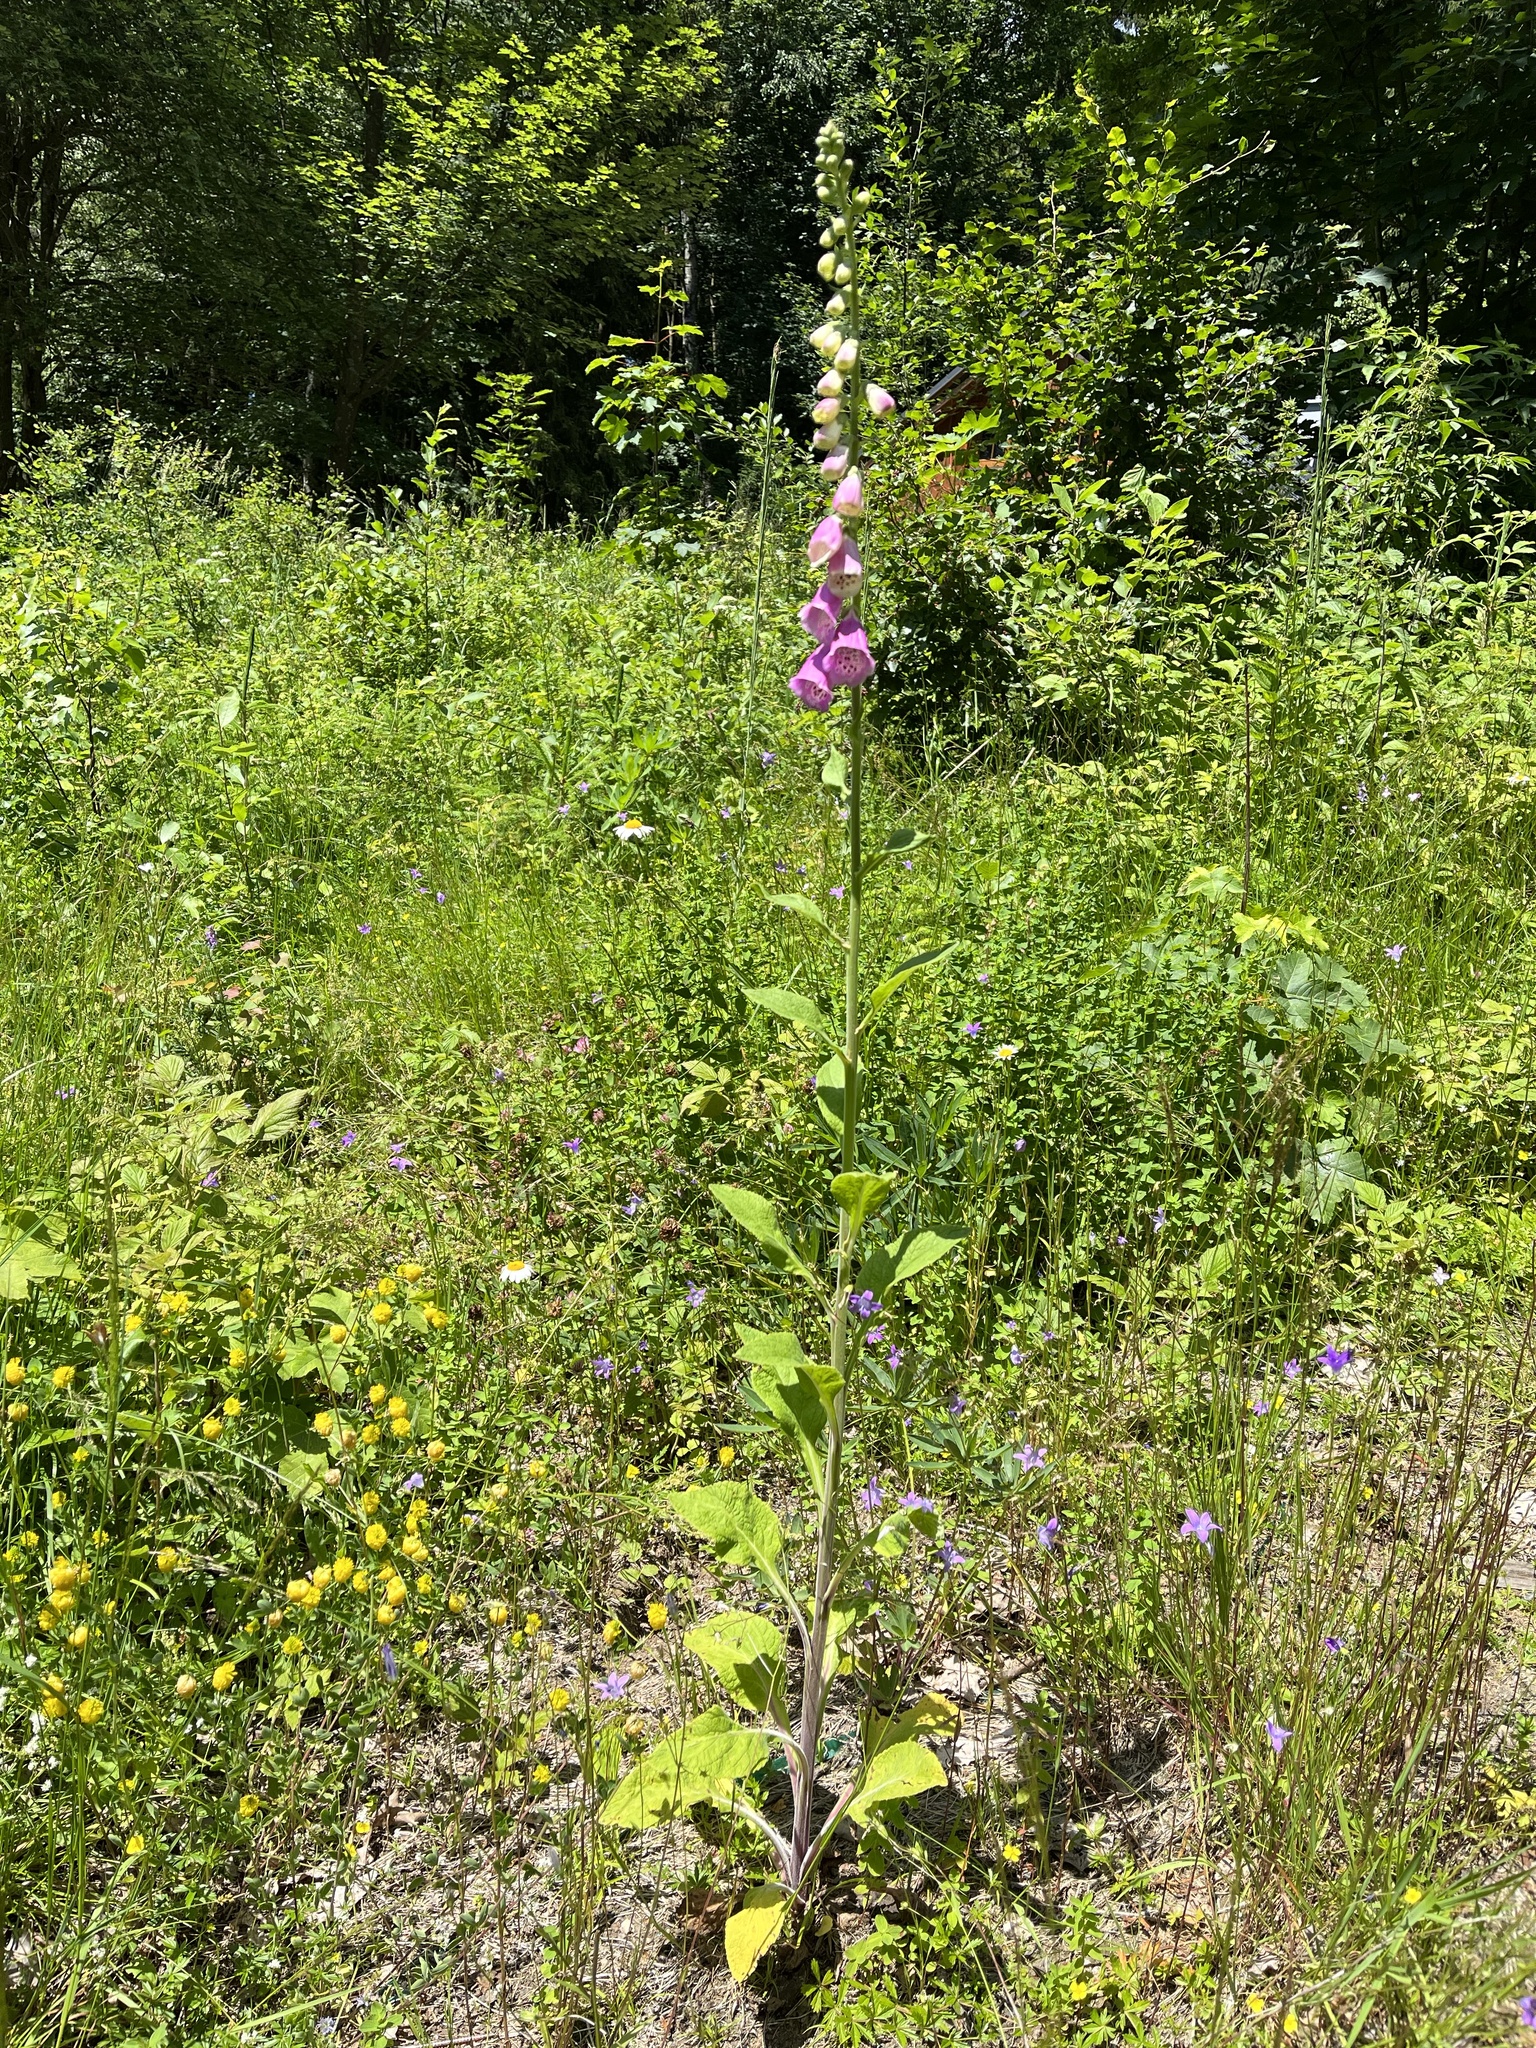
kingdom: Plantae
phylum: Tracheophyta
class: Magnoliopsida
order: Lamiales
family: Plantaginaceae
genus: Digitalis
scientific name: Digitalis purpurea
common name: Foxglove
